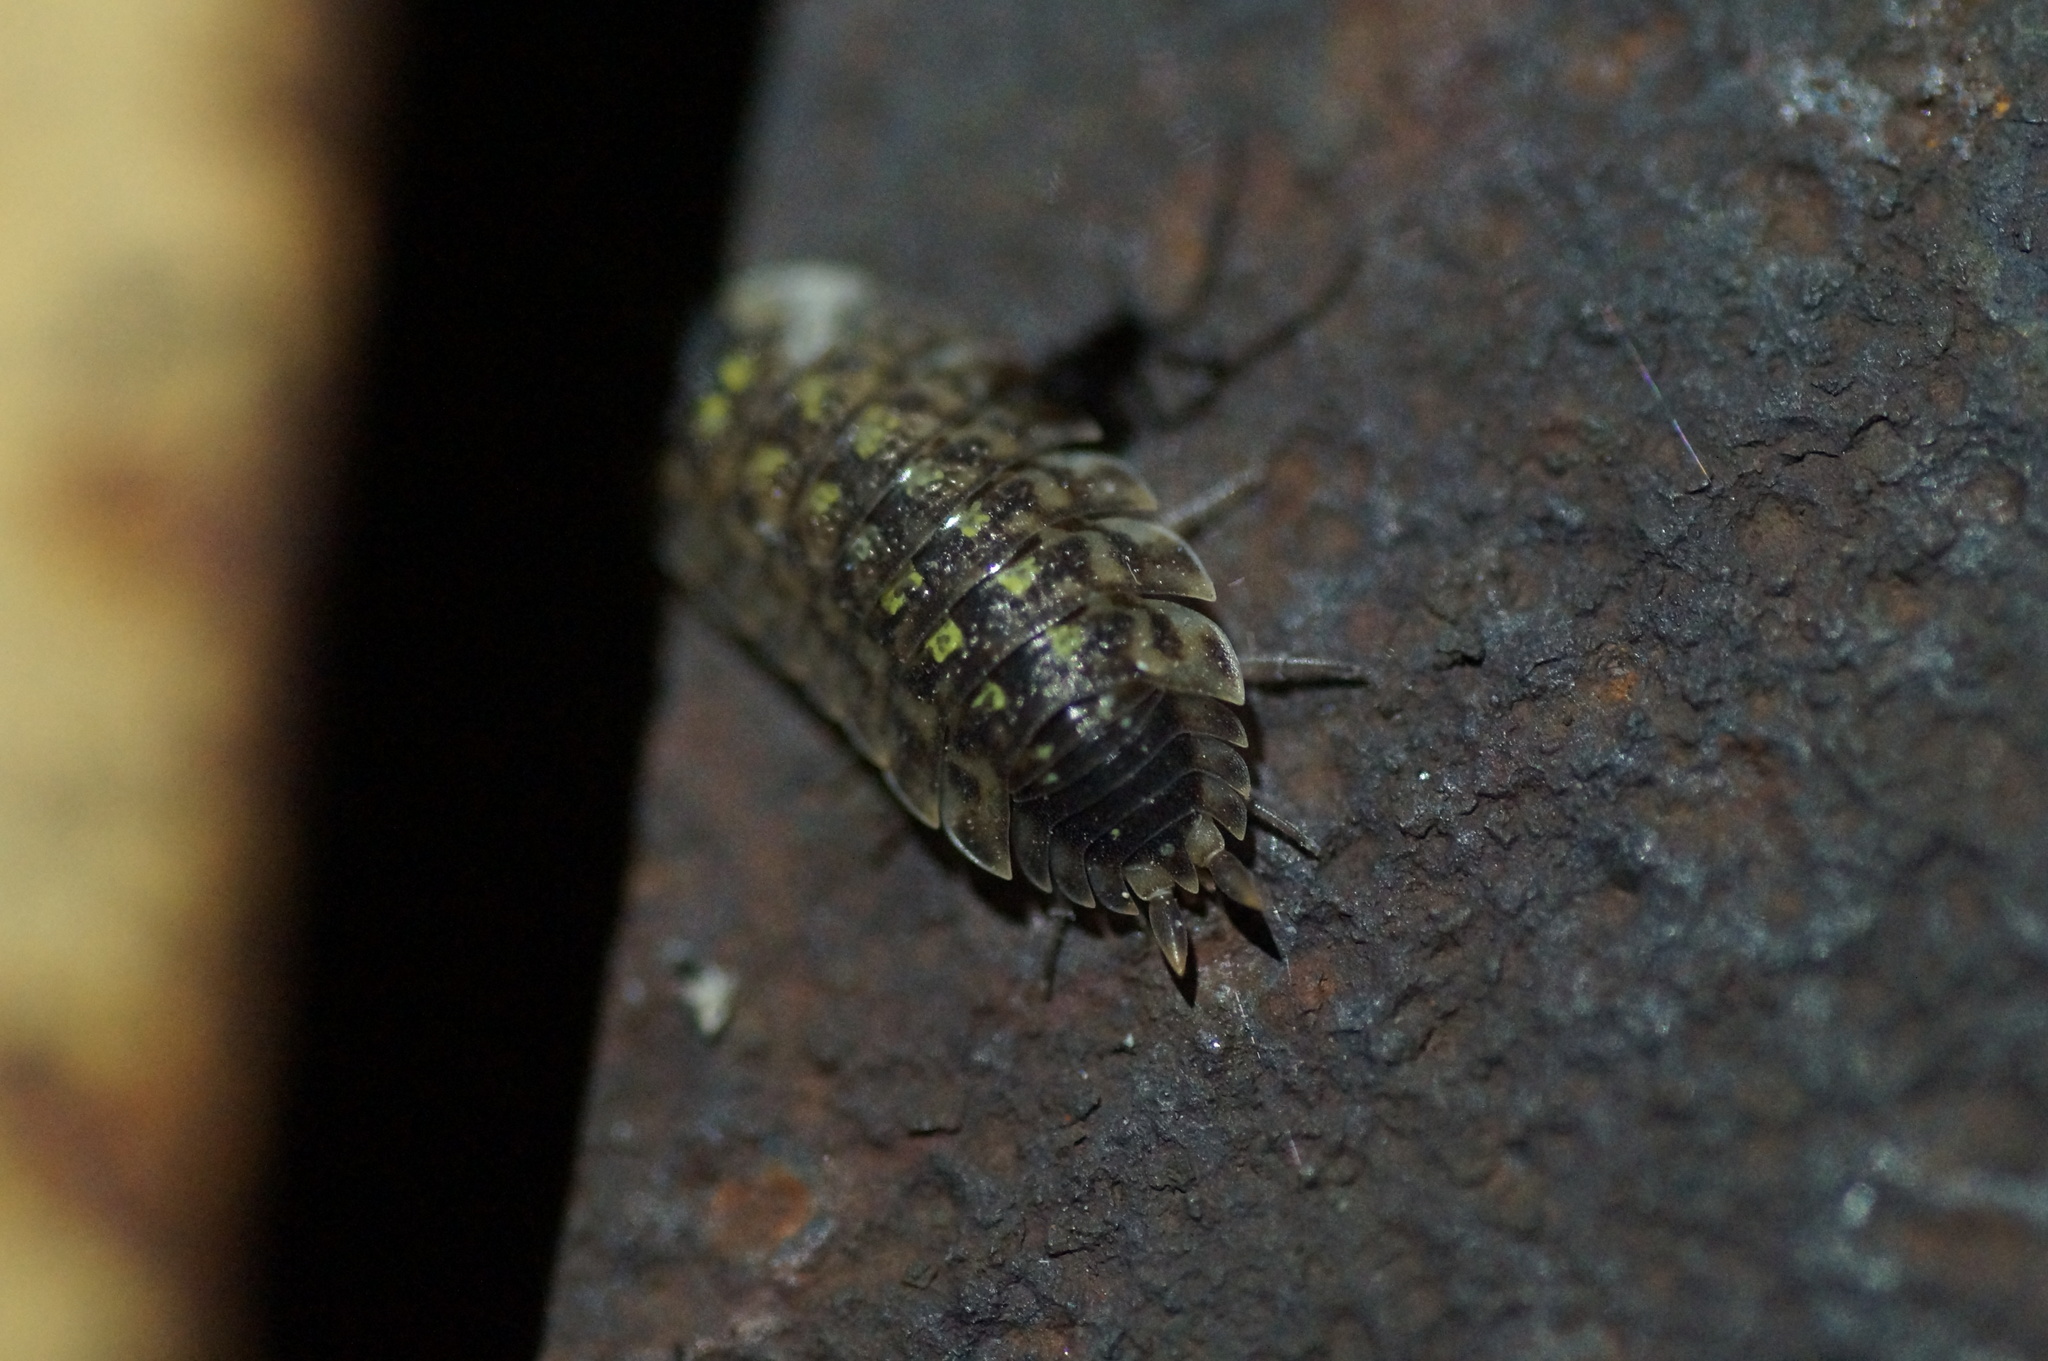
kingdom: Animalia
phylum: Arthropoda
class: Malacostraca
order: Isopoda
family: Porcellionidae
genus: Porcellio
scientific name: Porcellio spinicornis
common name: Painted woodlouse
